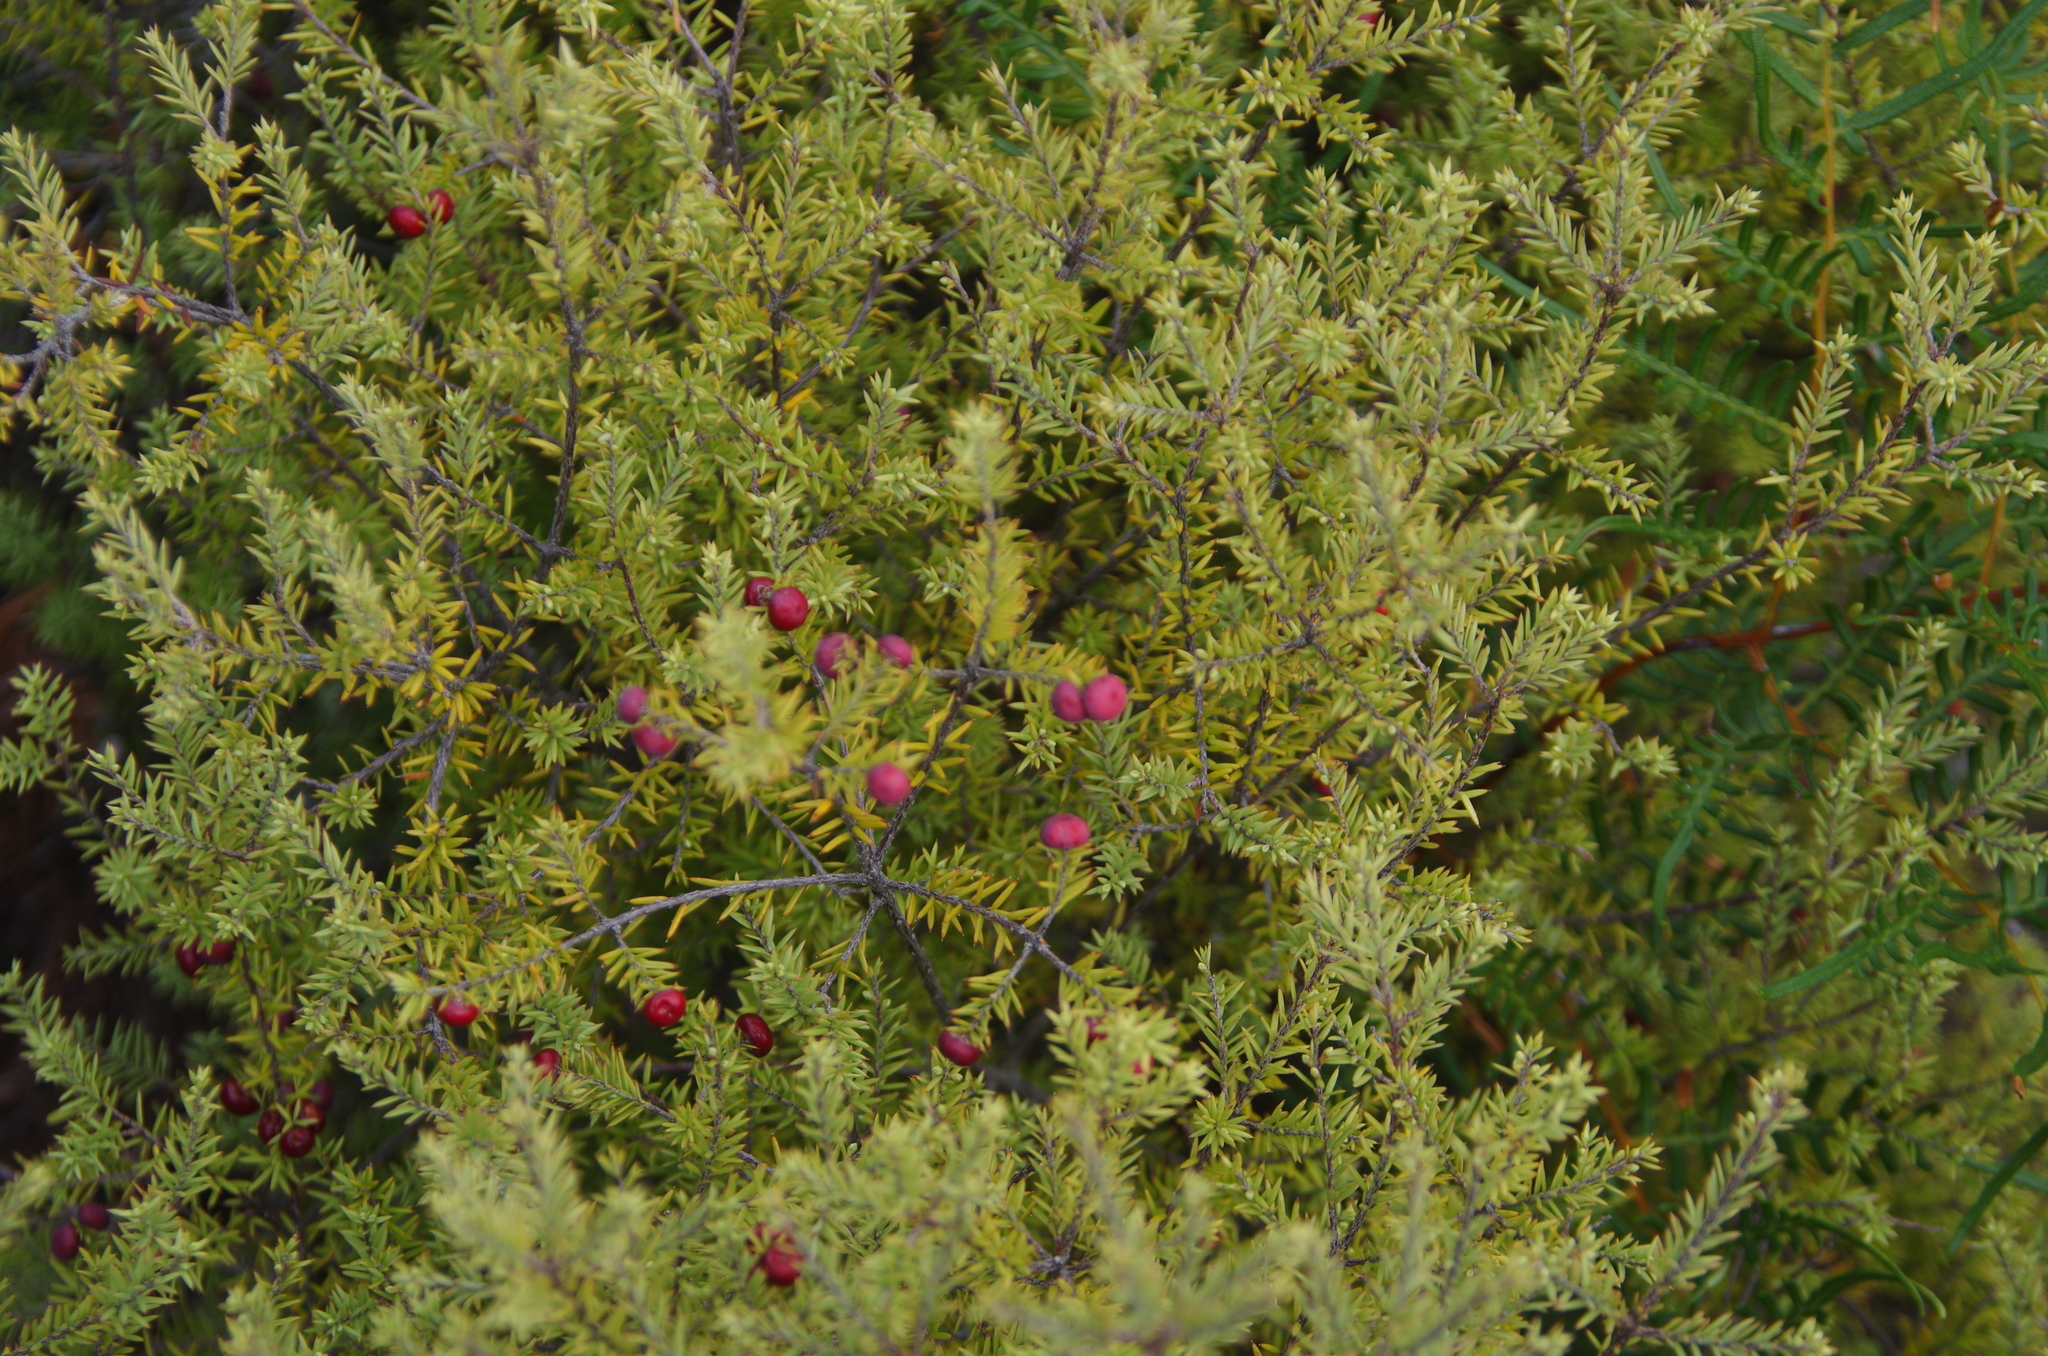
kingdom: Plantae
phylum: Tracheophyta
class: Magnoliopsida
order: Ericales
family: Ericaceae
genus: Leptecophylla
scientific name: Leptecophylla juniperina
